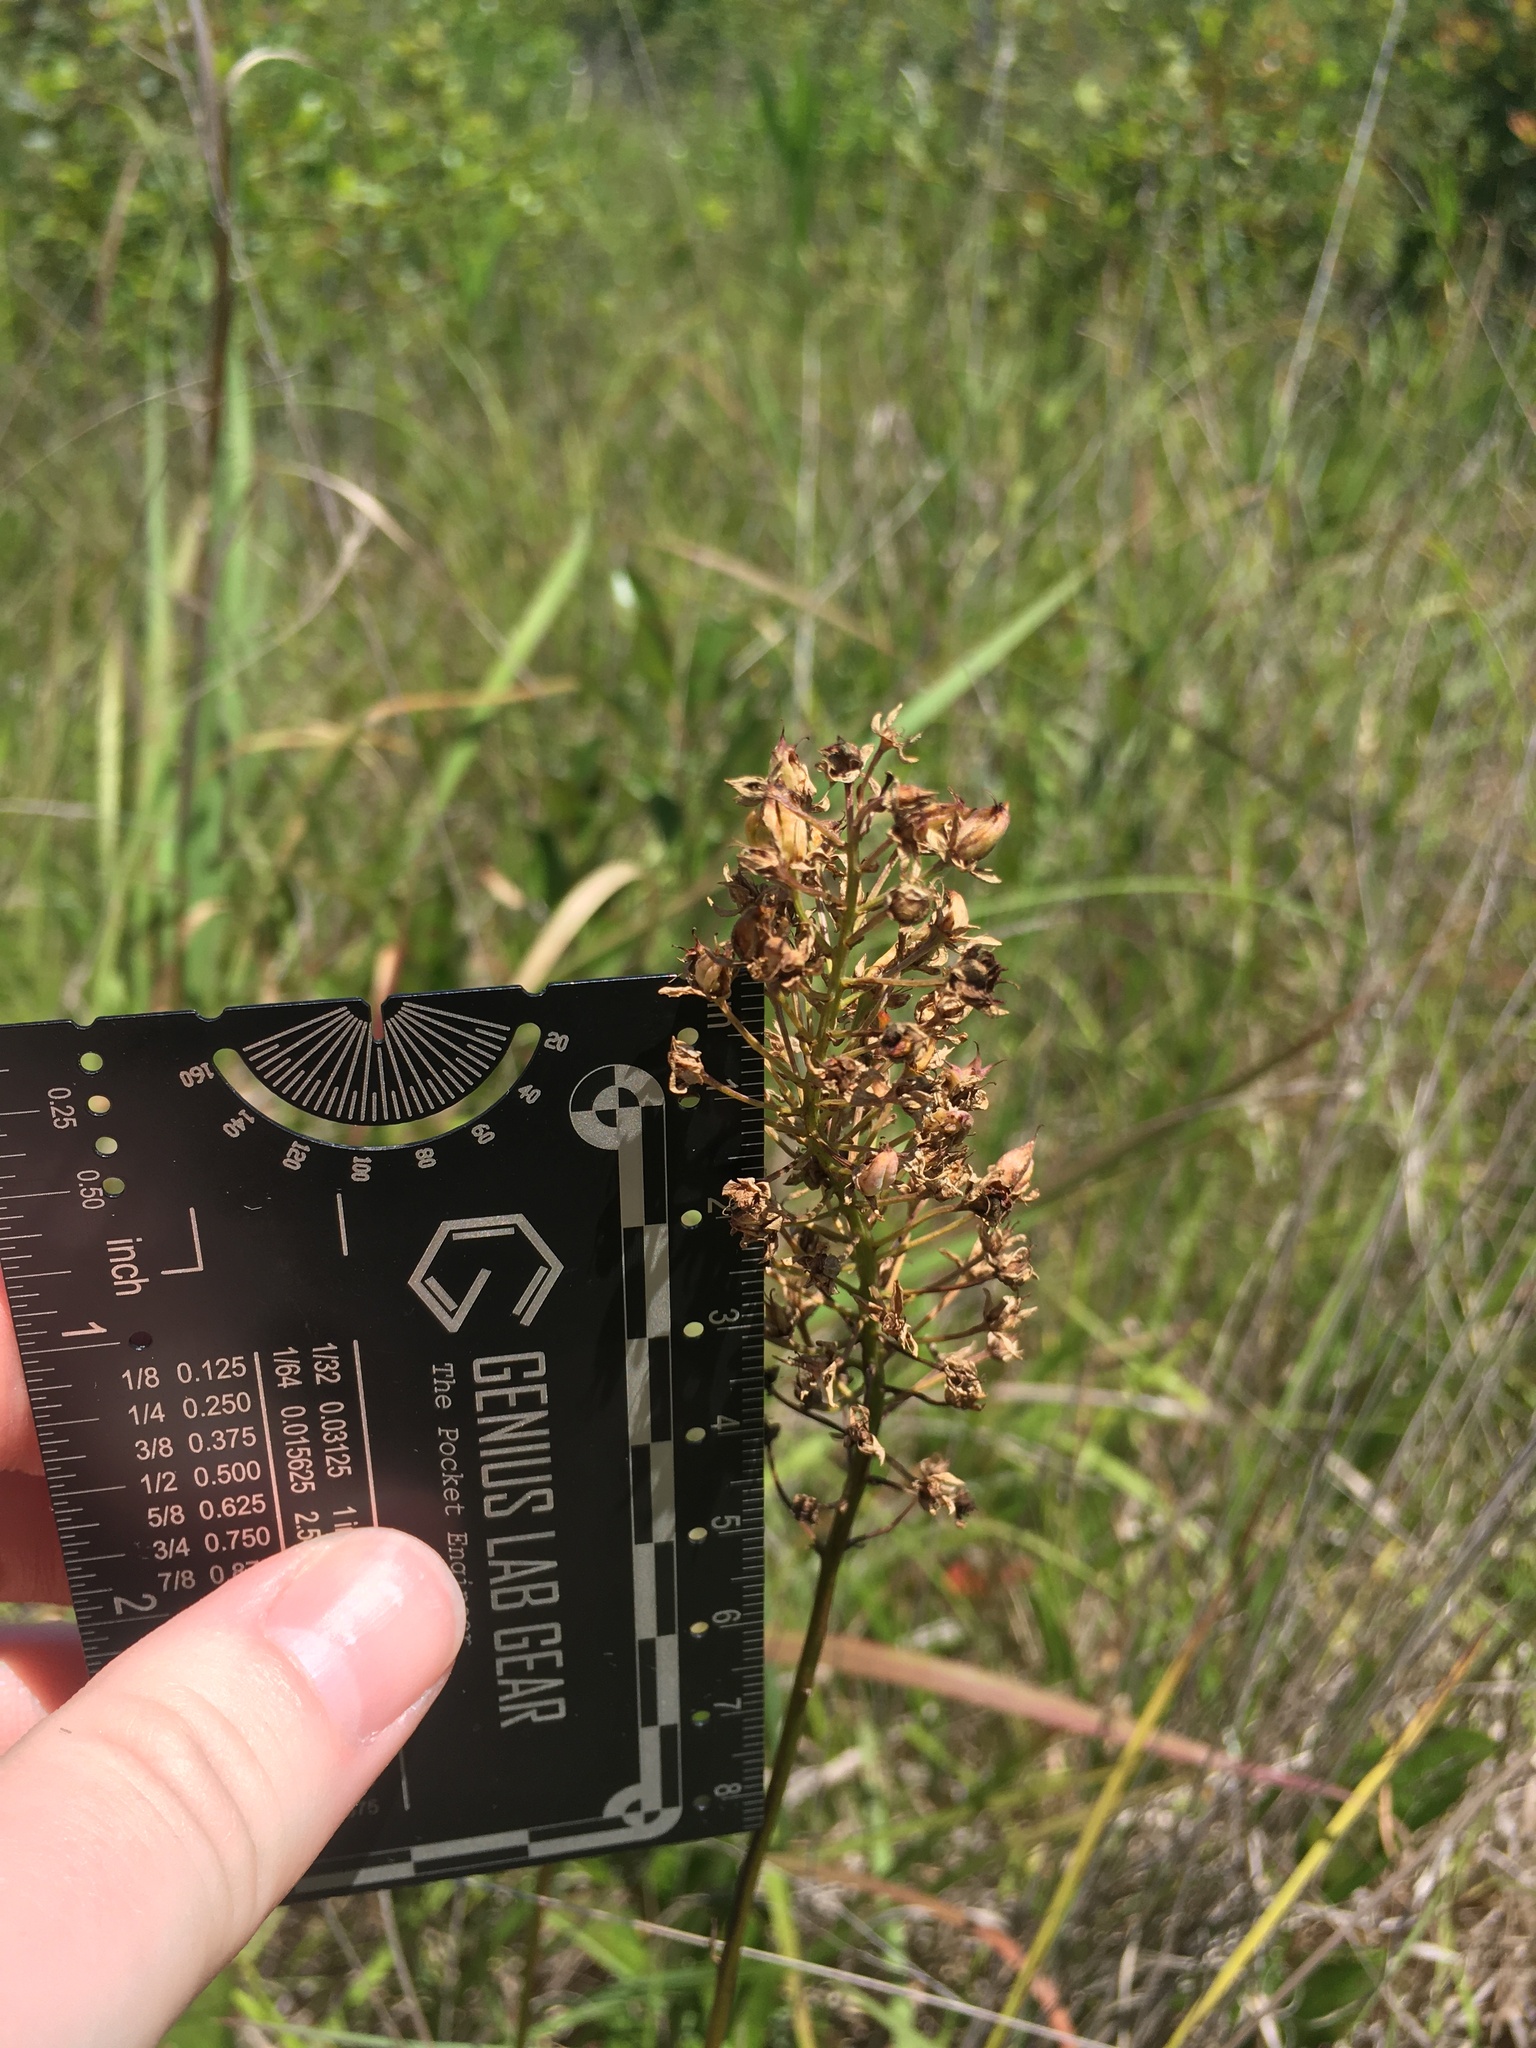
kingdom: Plantae
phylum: Tracheophyta
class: Liliopsida
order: Liliales
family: Melanthiaceae
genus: Stenanthium
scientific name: Stenanthium densum
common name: Crow-poison
